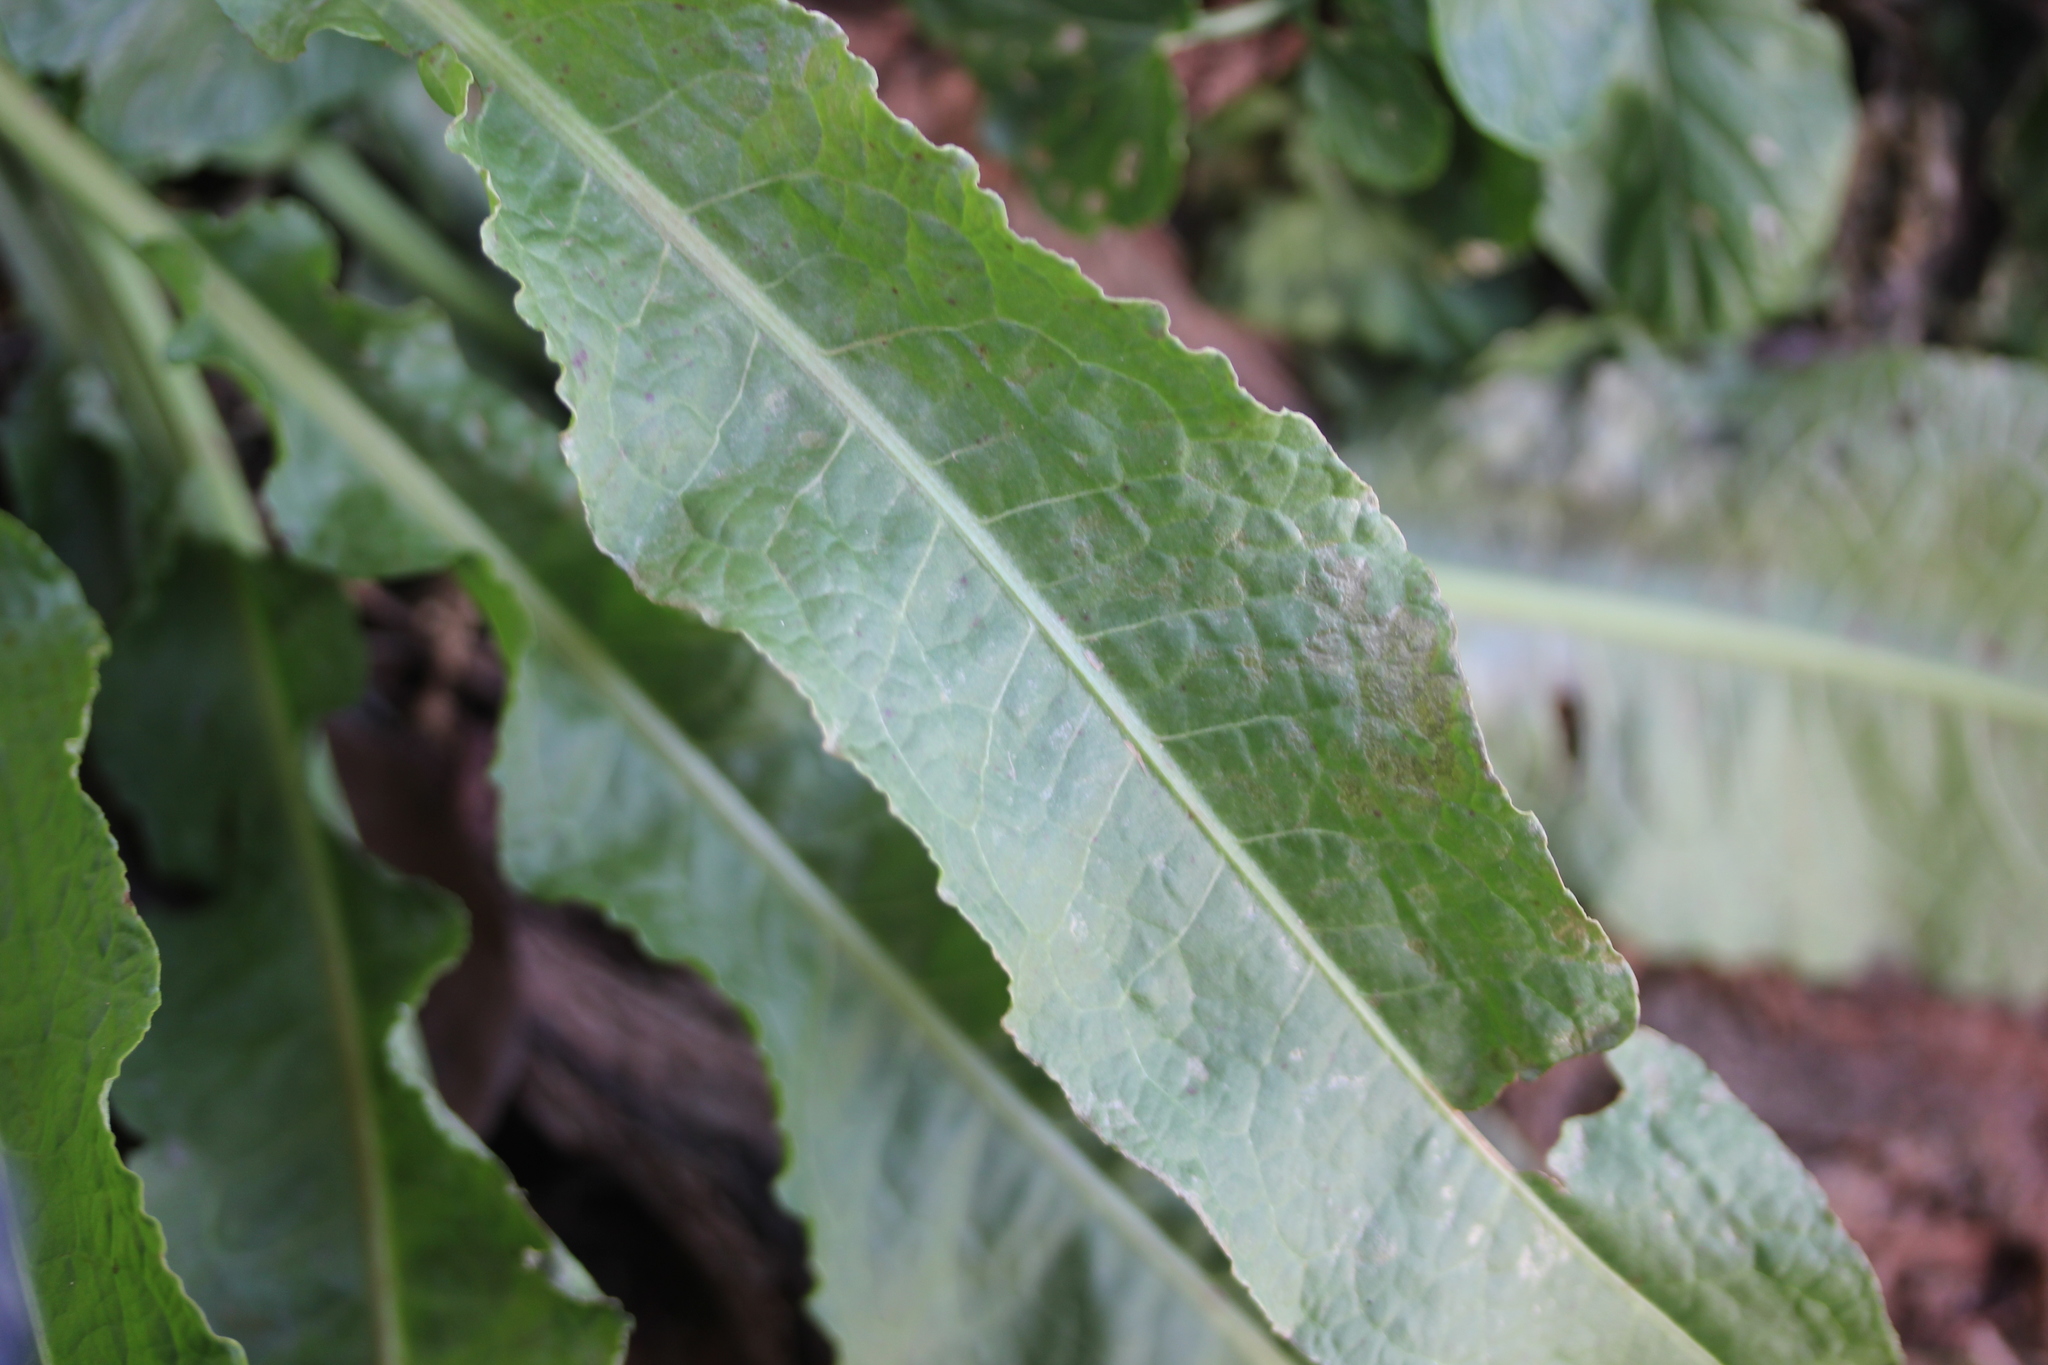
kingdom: Plantae
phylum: Tracheophyta
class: Magnoliopsida
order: Caryophyllales
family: Polygonaceae
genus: Rumex
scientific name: Rumex crispus
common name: Curled dock
